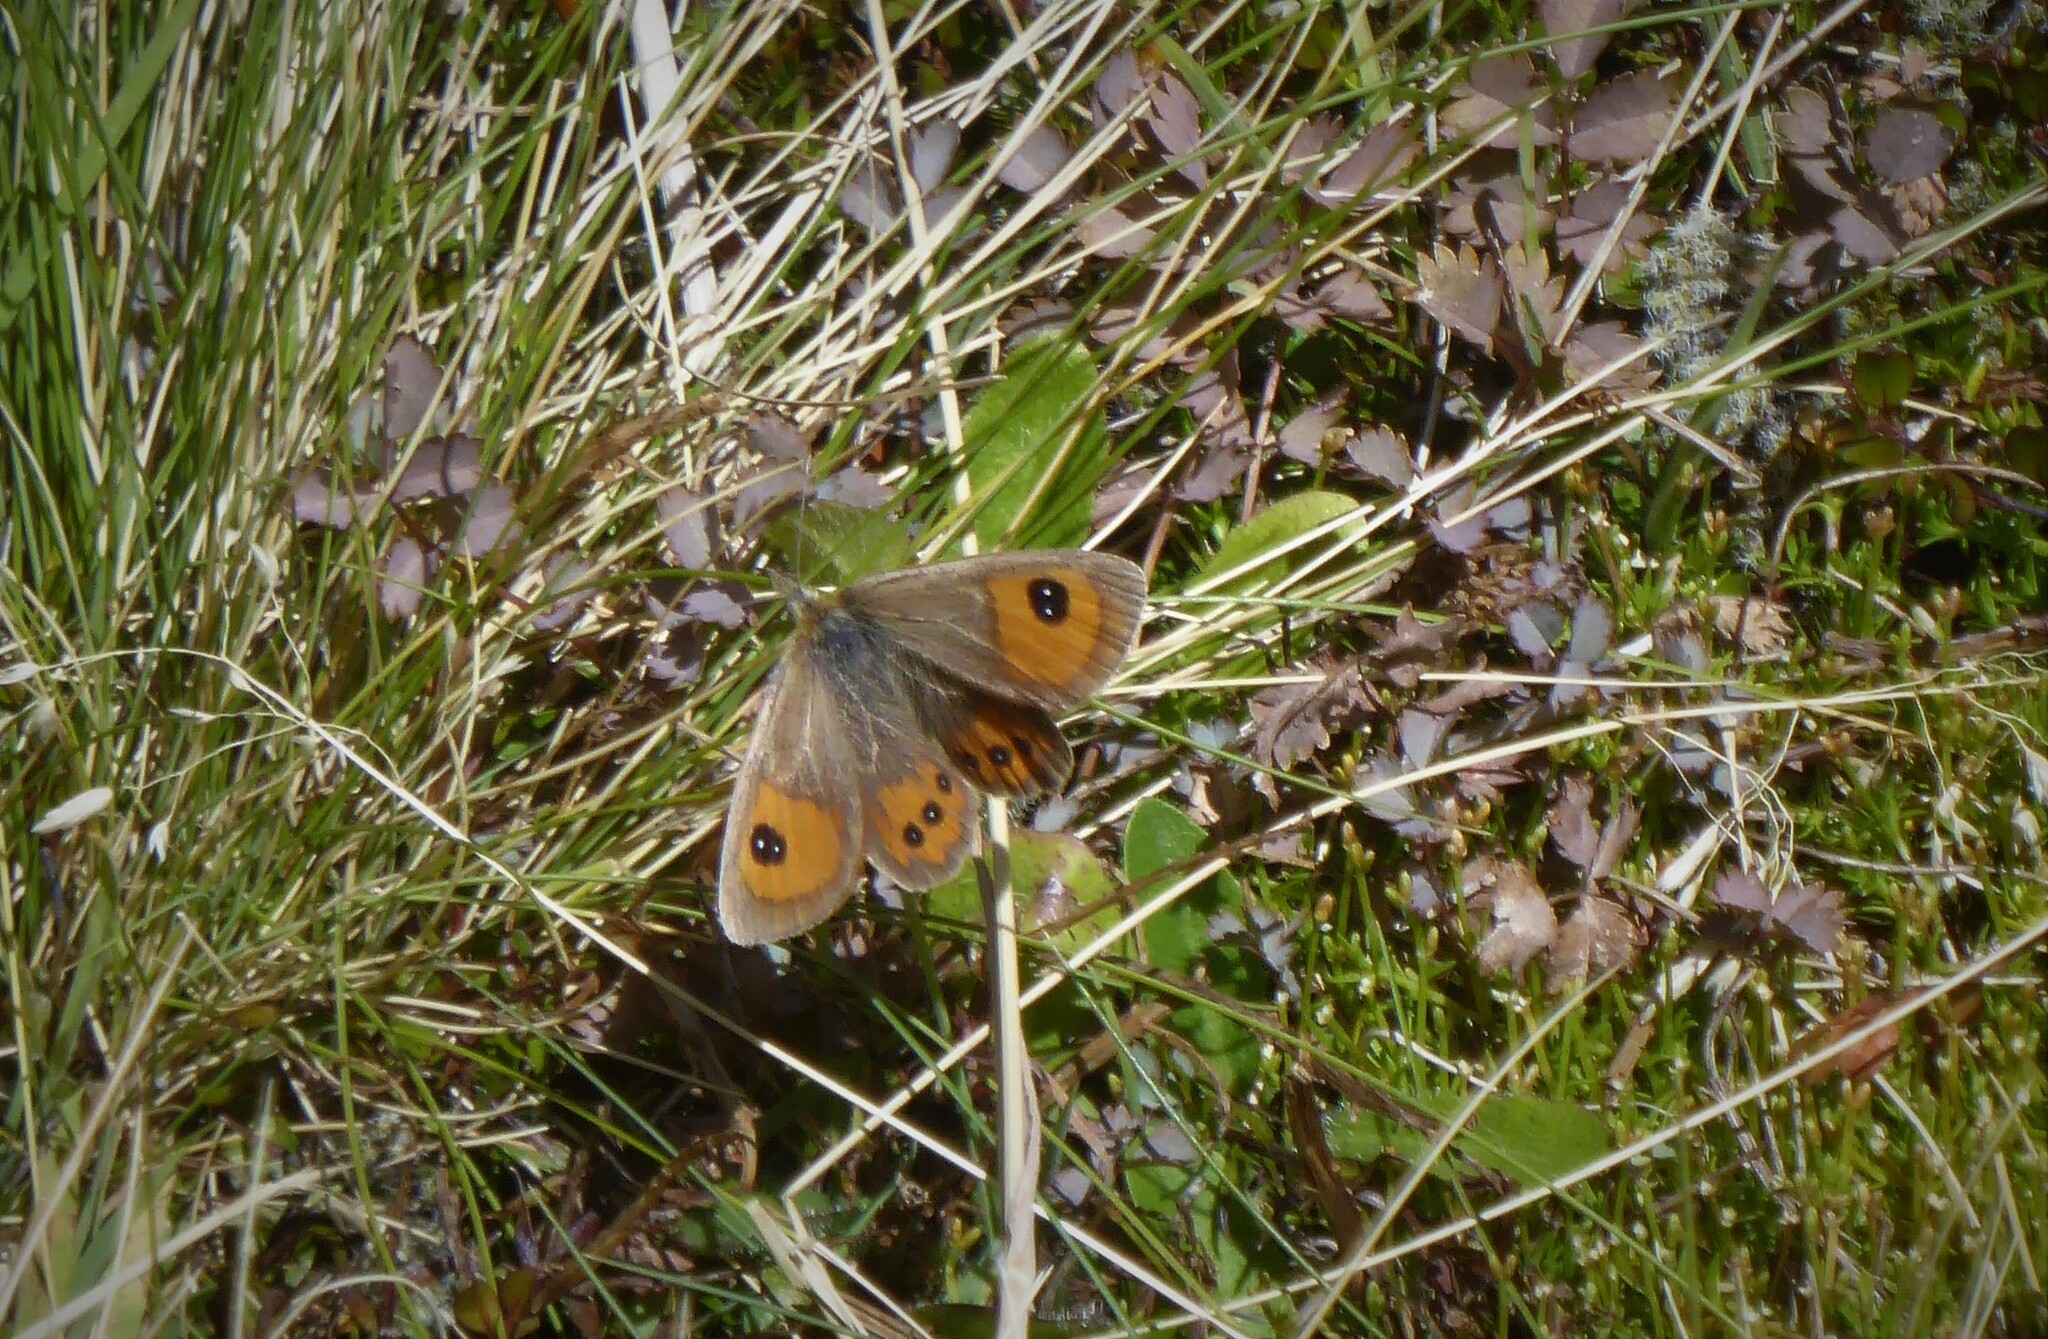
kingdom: Animalia
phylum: Arthropoda
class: Insecta
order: Lepidoptera
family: Nymphalidae
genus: Argyrophenga
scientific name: Argyrophenga antipodum
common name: Common tussock butterfly
